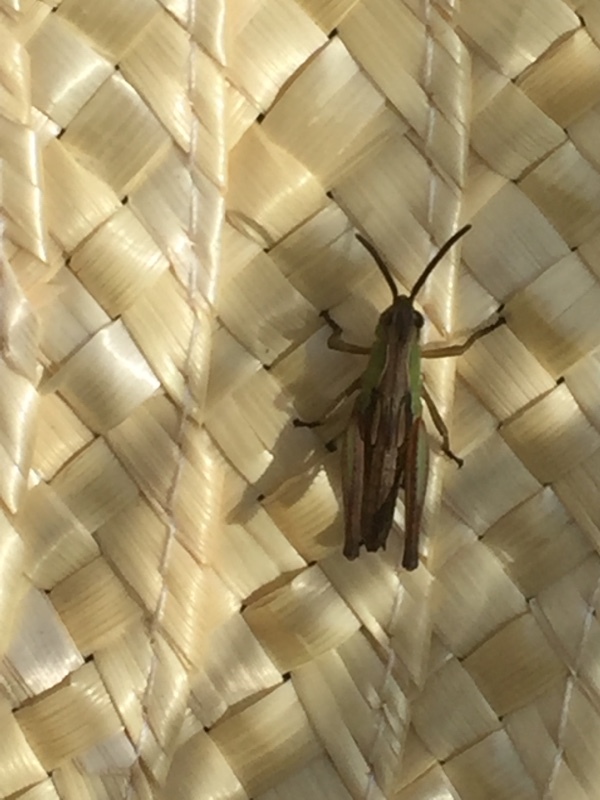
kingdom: Animalia
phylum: Arthropoda
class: Insecta
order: Orthoptera
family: Acrididae
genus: Pseudochorthippus
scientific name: Pseudochorthippus parallelus
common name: Meadow grasshopper
